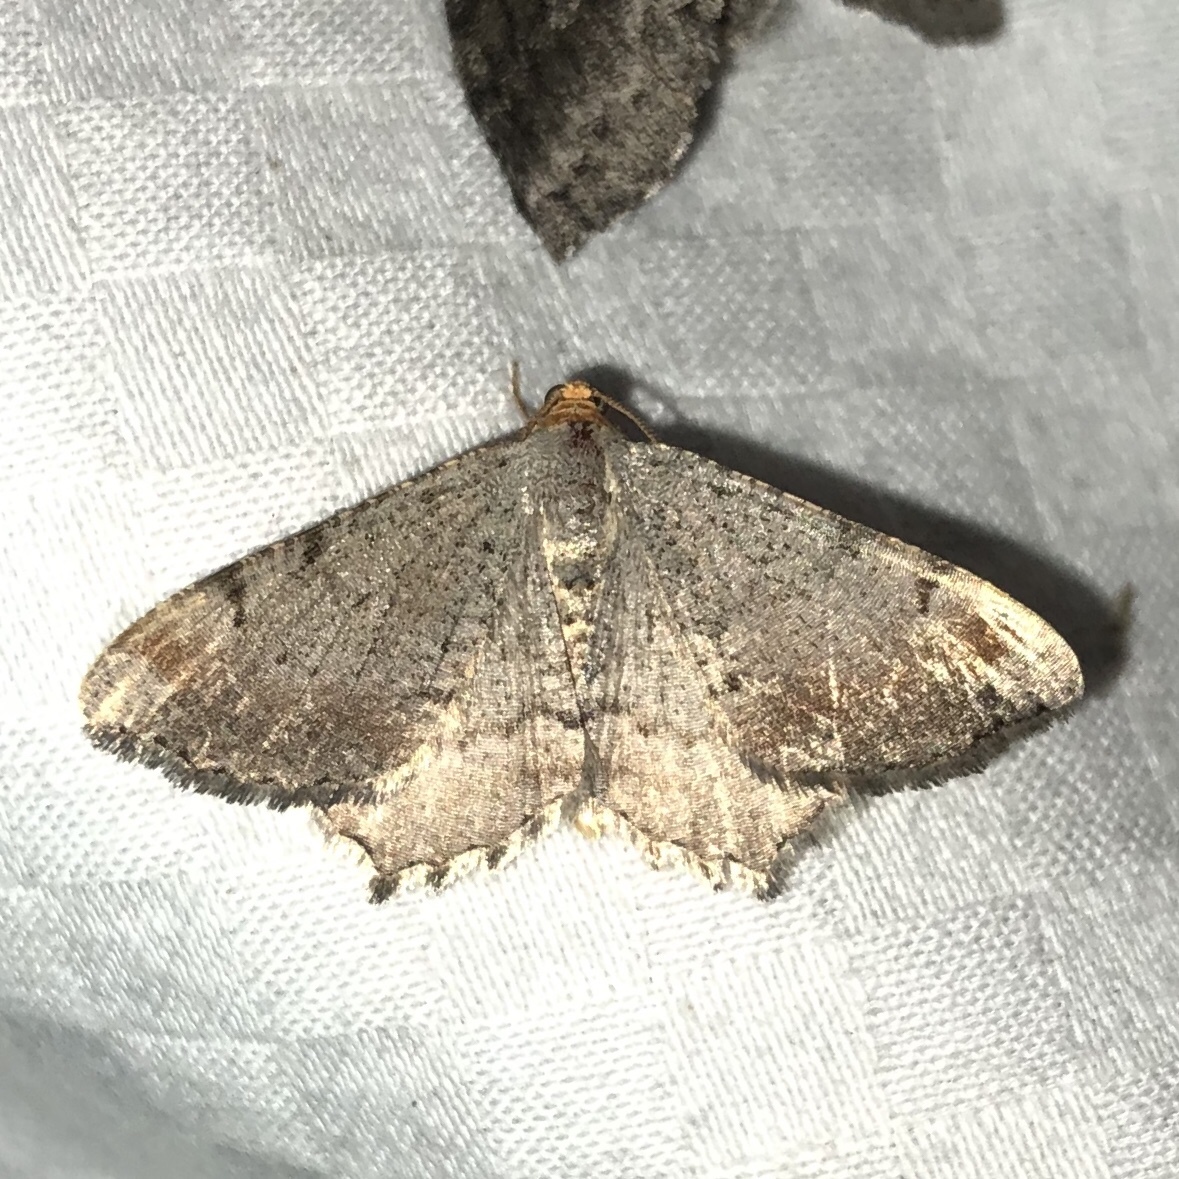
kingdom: Animalia
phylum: Arthropoda
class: Insecta
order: Lepidoptera
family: Geometridae
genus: Macaria
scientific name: Macaria minorata
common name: Minor angle moth
